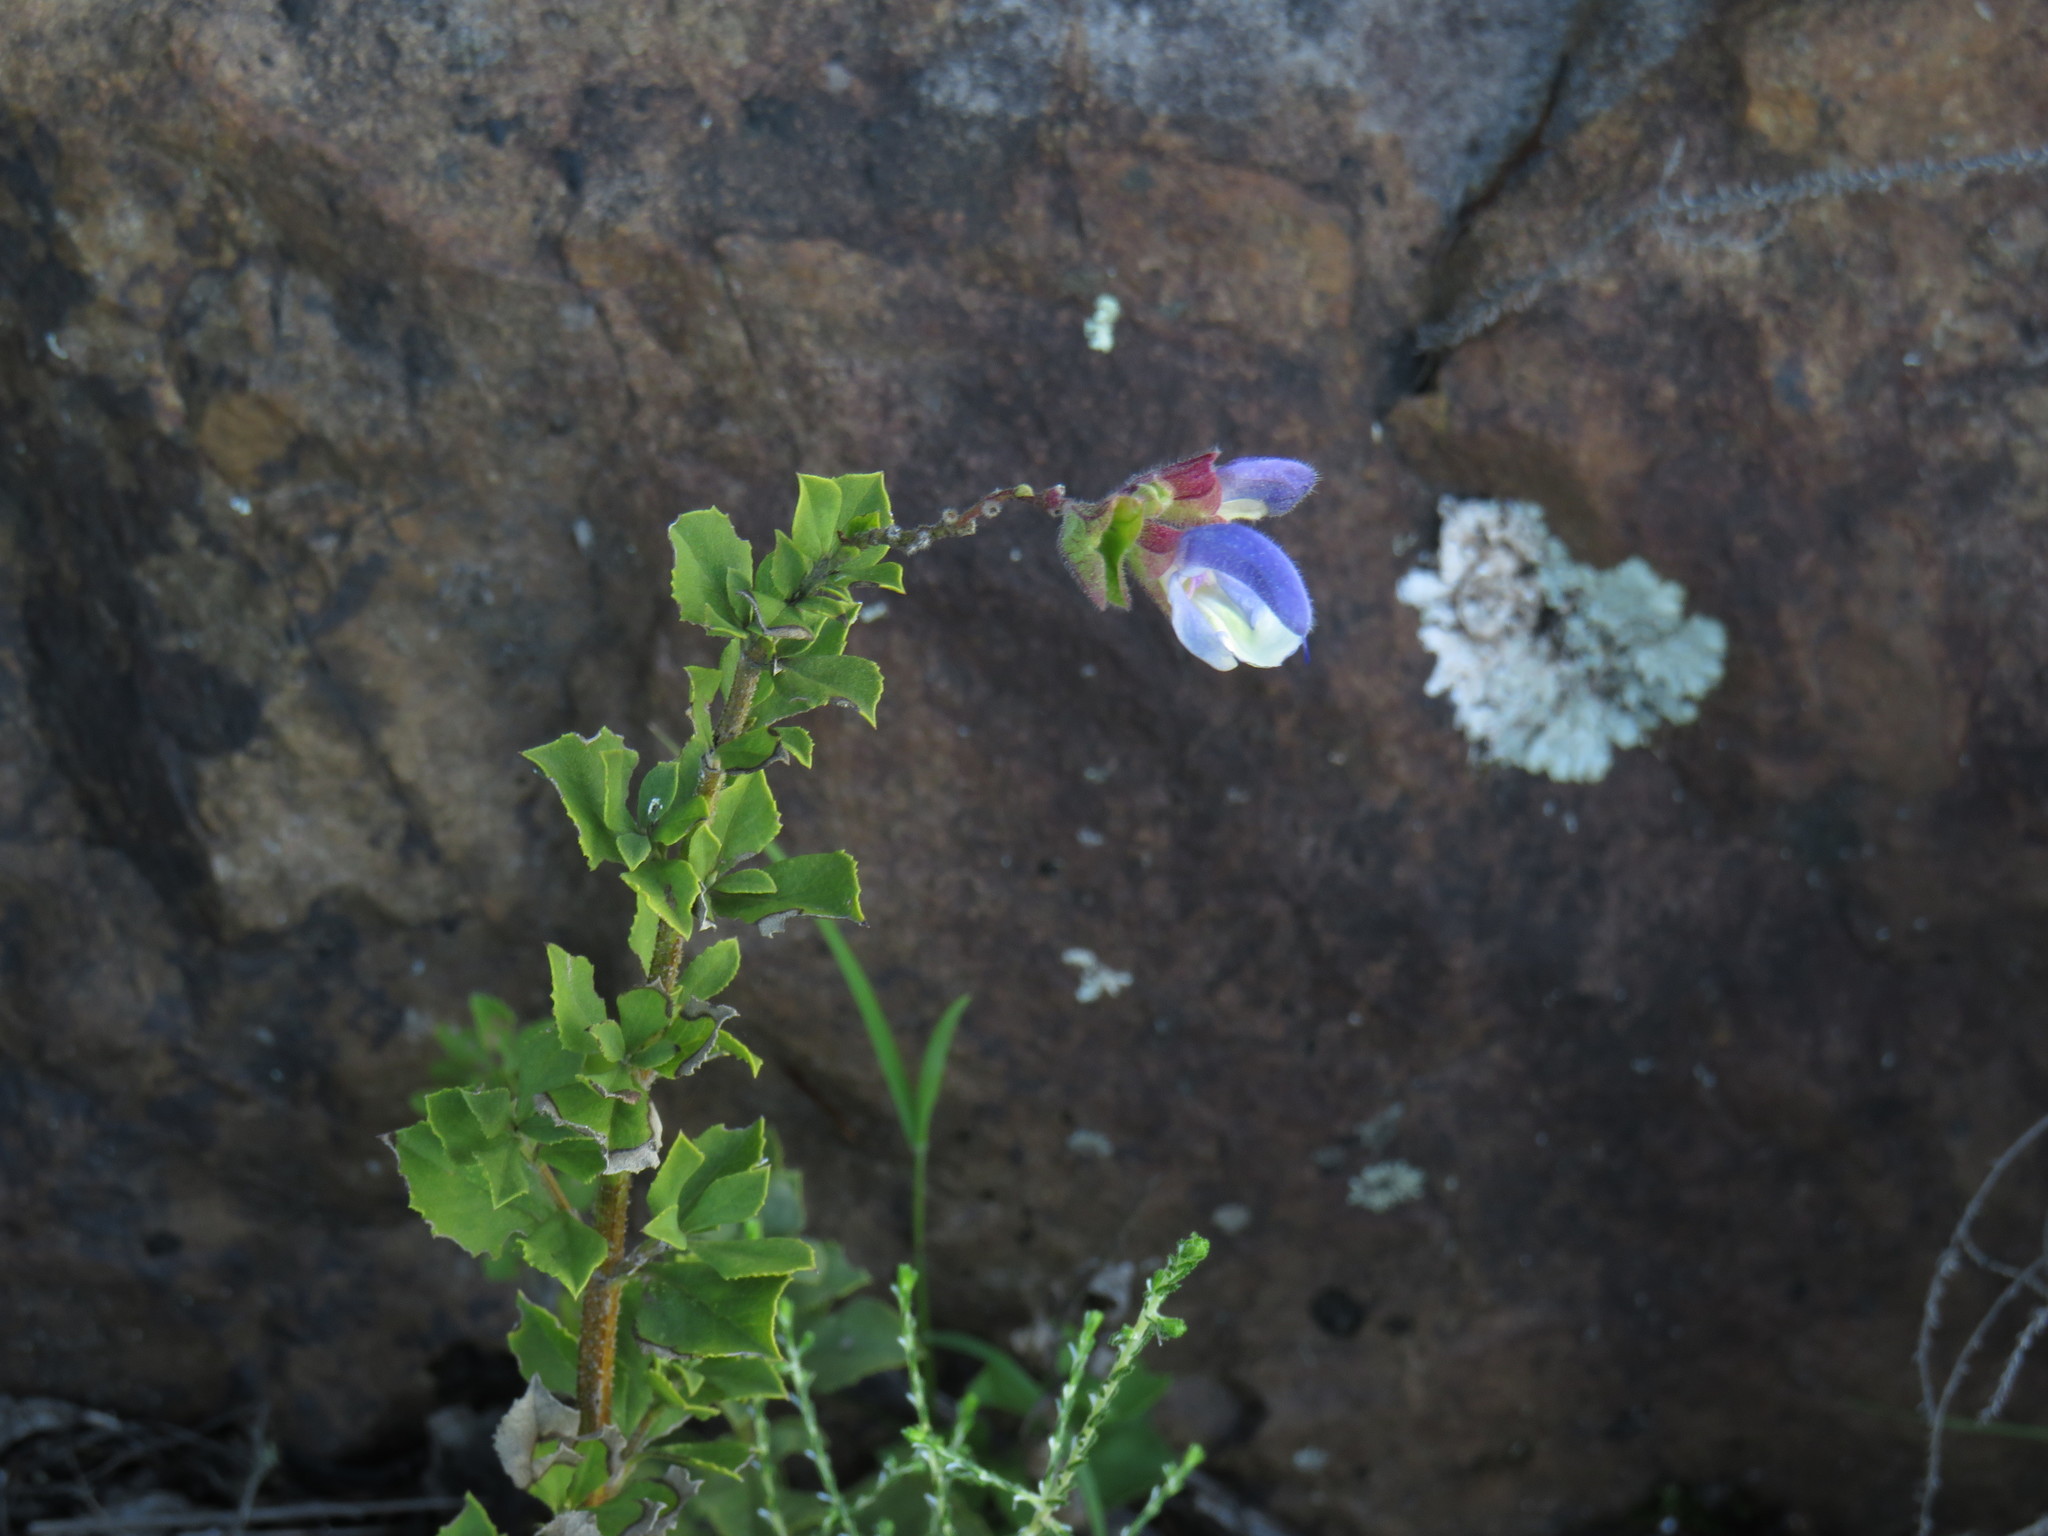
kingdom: Plantae
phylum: Tracheophyta
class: Magnoliopsida
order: Lamiales
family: Lamiaceae
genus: Salvia
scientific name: Salvia chamelaeagnea
